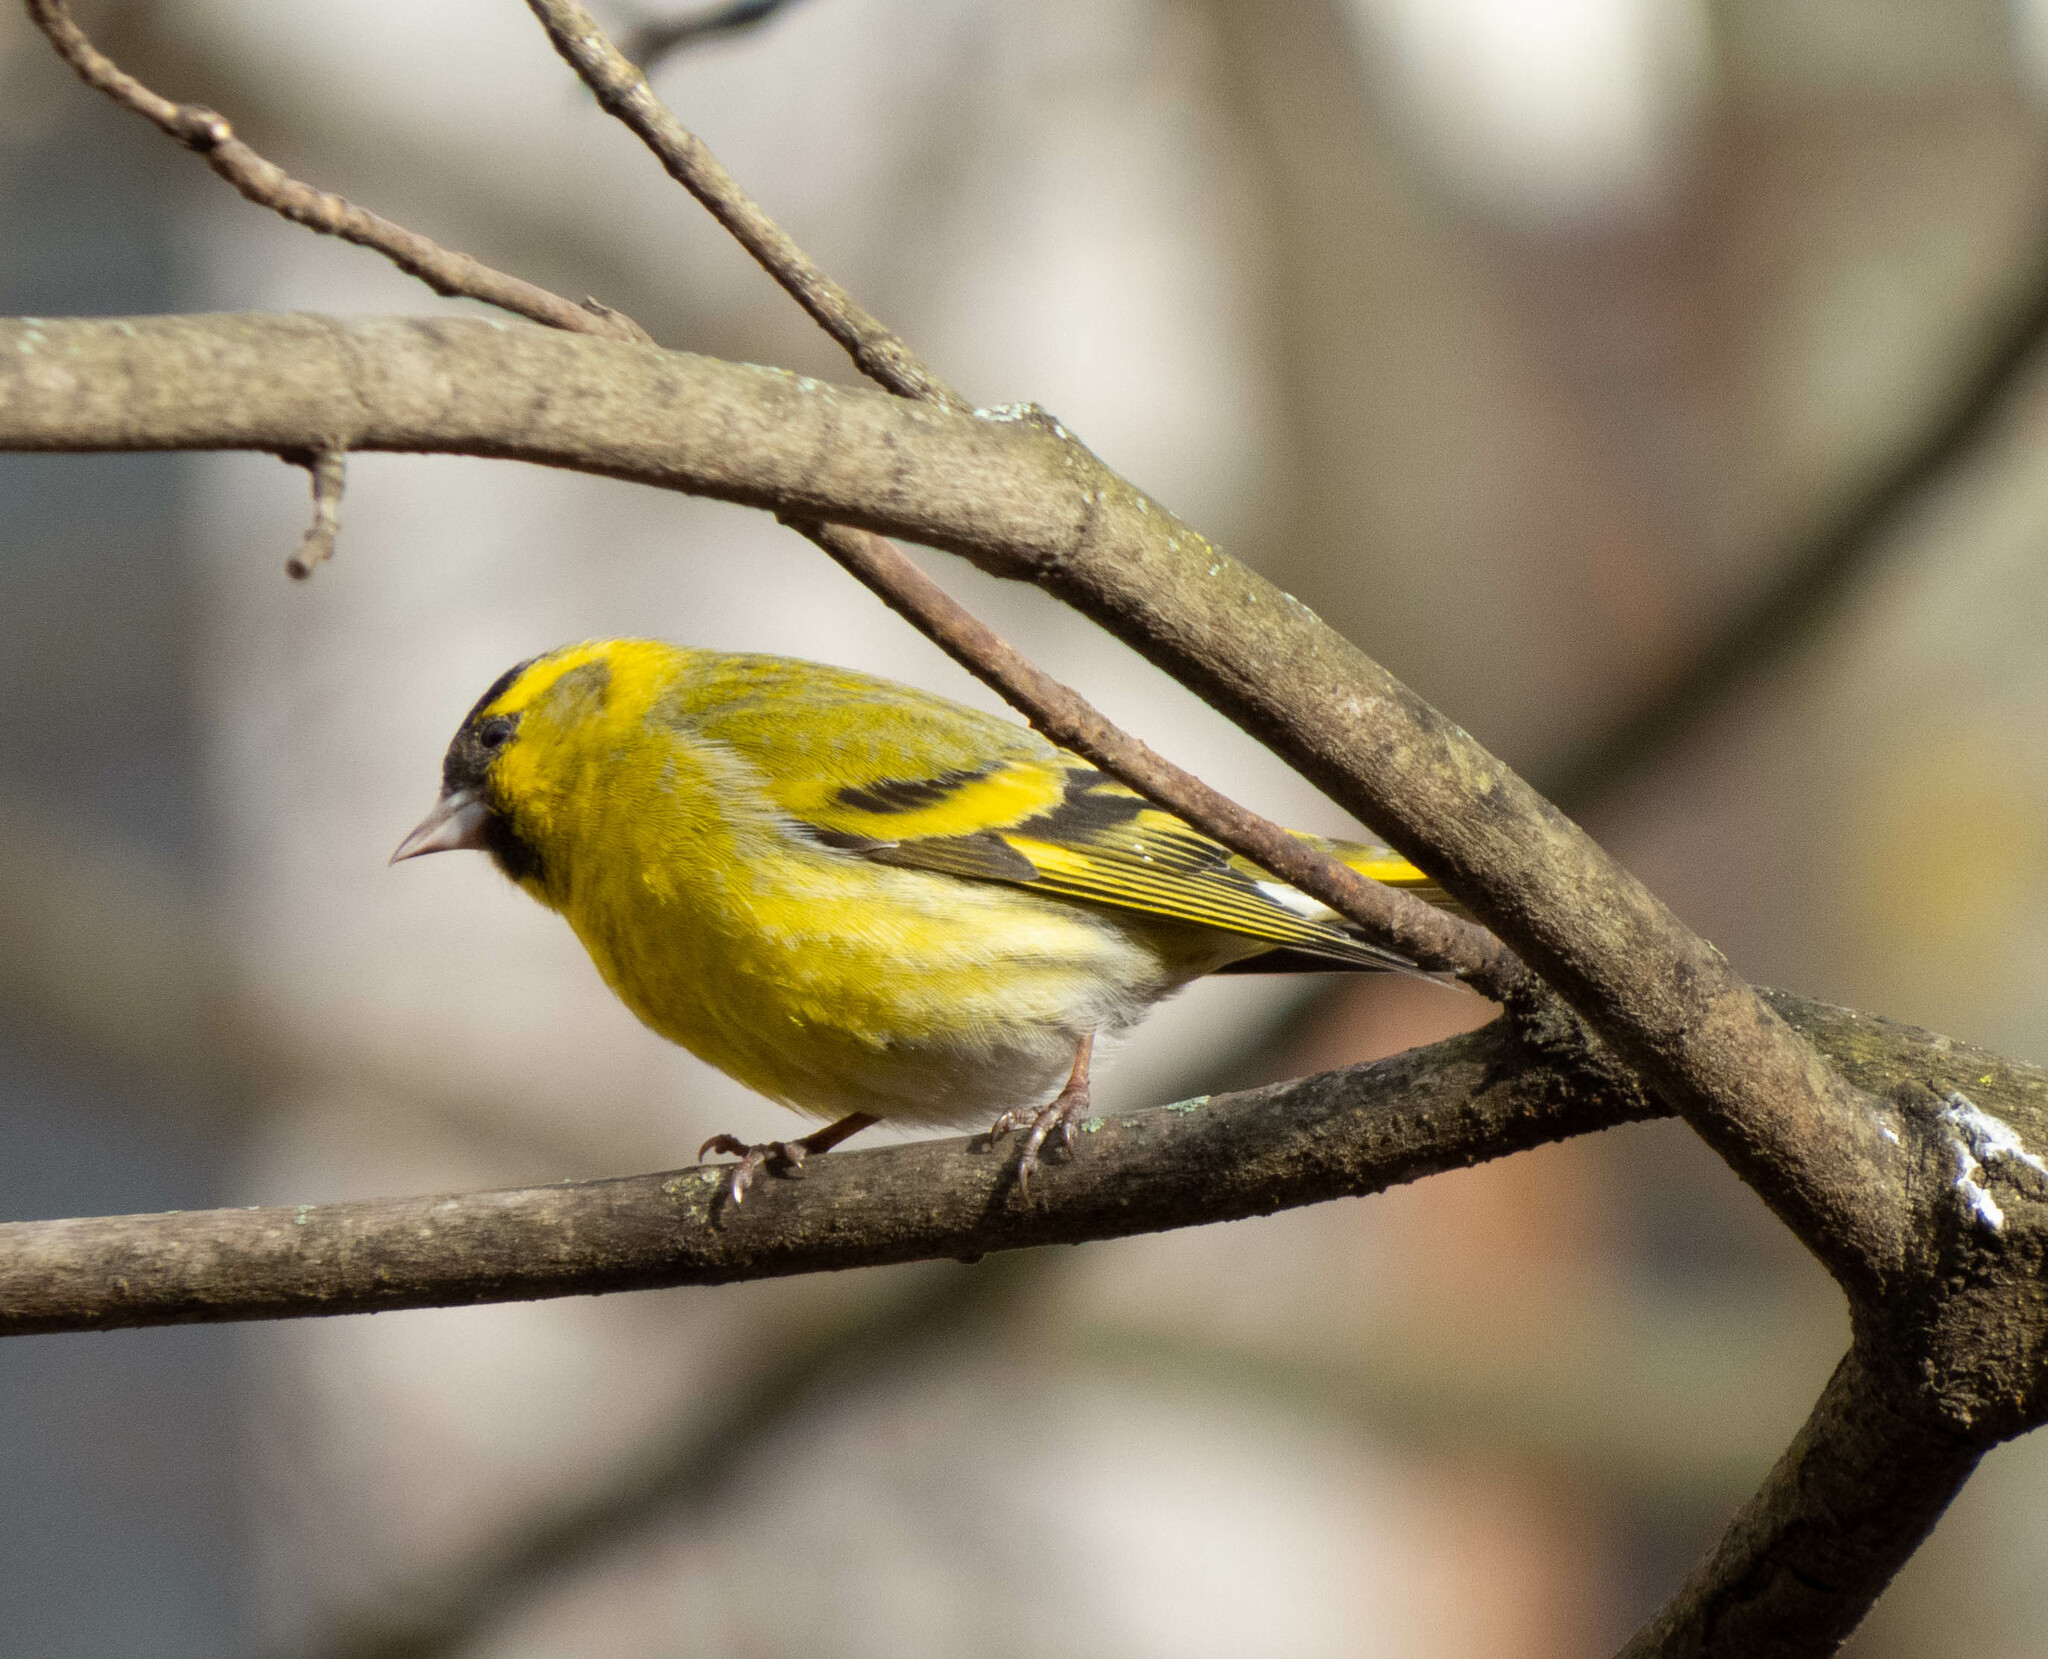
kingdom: Animalia
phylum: Chordata
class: Aves
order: Passeriformes
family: Fringillidae
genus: Spinus
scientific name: Spinus spinus
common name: Eurasian siskin
